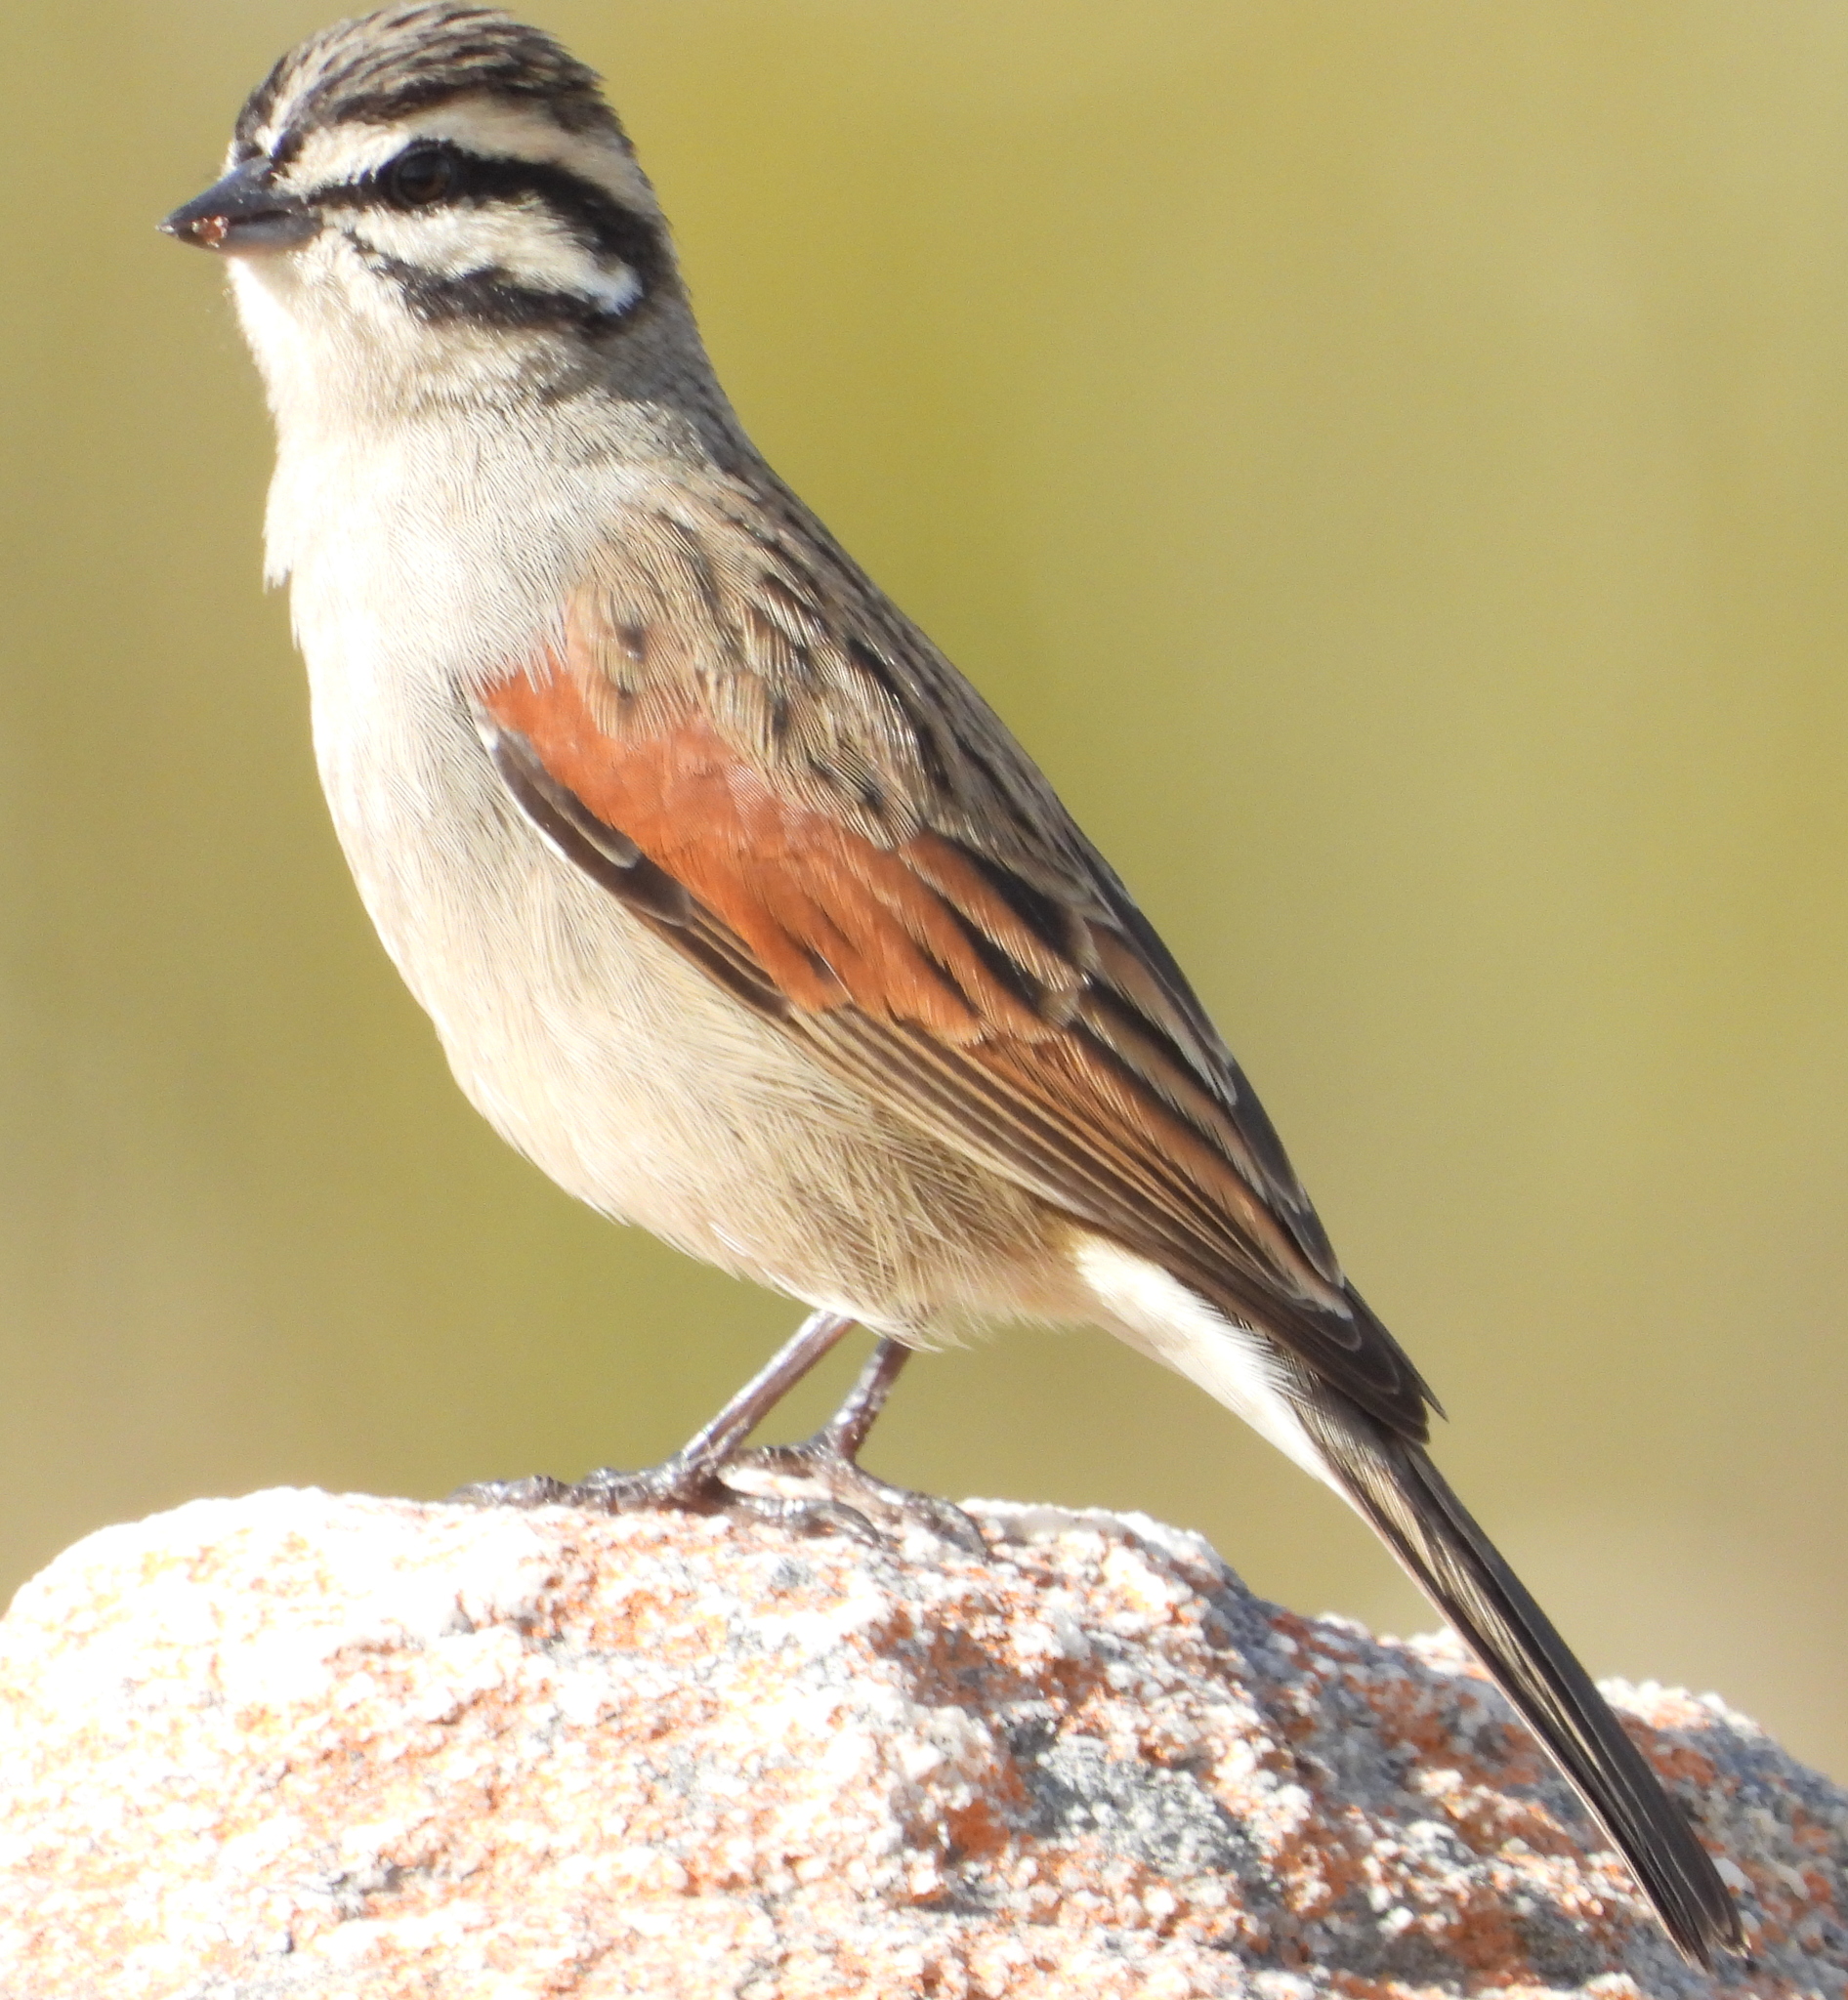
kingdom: Animalia
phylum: Chordata
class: Aves
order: Passeriformes
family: Emberizidae
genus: Emberiza
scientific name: Emberiza capensis
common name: Cape bunting
